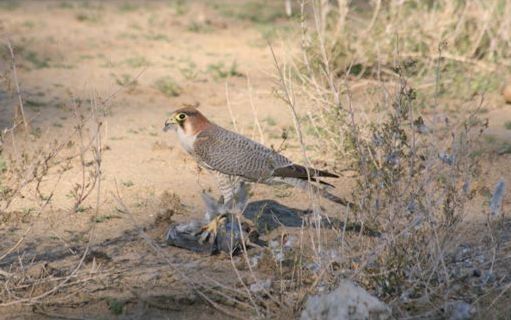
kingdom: Animalia
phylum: Chordata
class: Aves
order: Falconiformes
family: Falconidae
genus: Falco
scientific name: Falco chicquera
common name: Red-necked falcon
